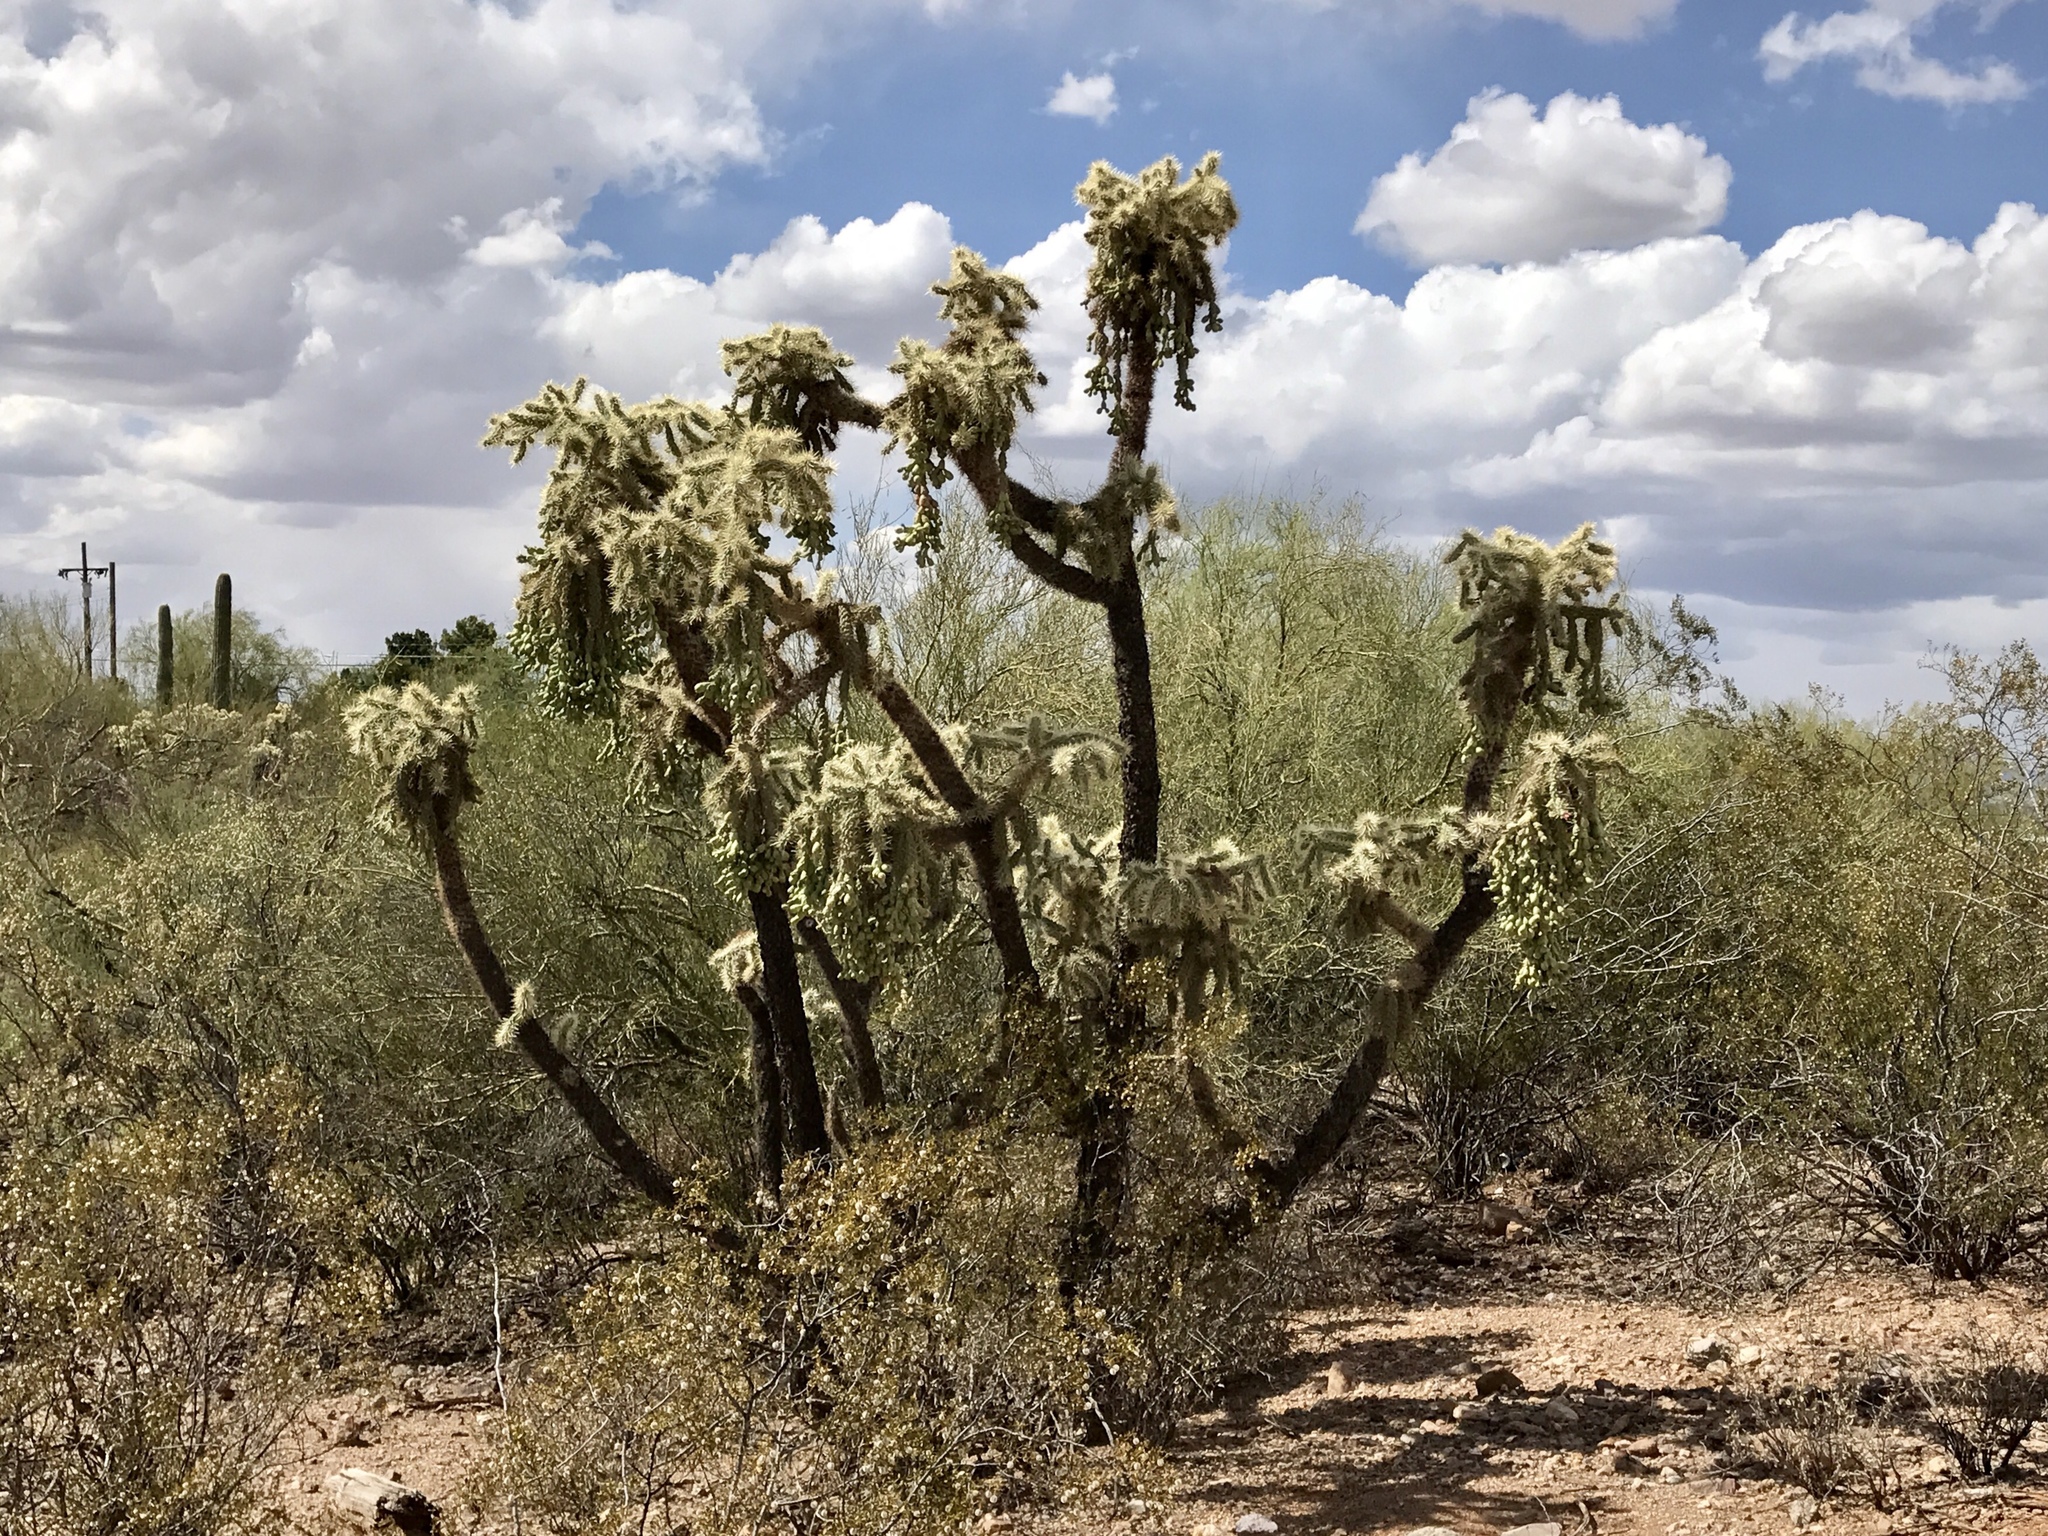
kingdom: Plantae
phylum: Tracheophyta
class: Magnoliopsida
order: Caryophyllales
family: Cactaceae
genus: Cylindropuntia
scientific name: Cylindropuntia fulgida
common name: Jumping cholla
